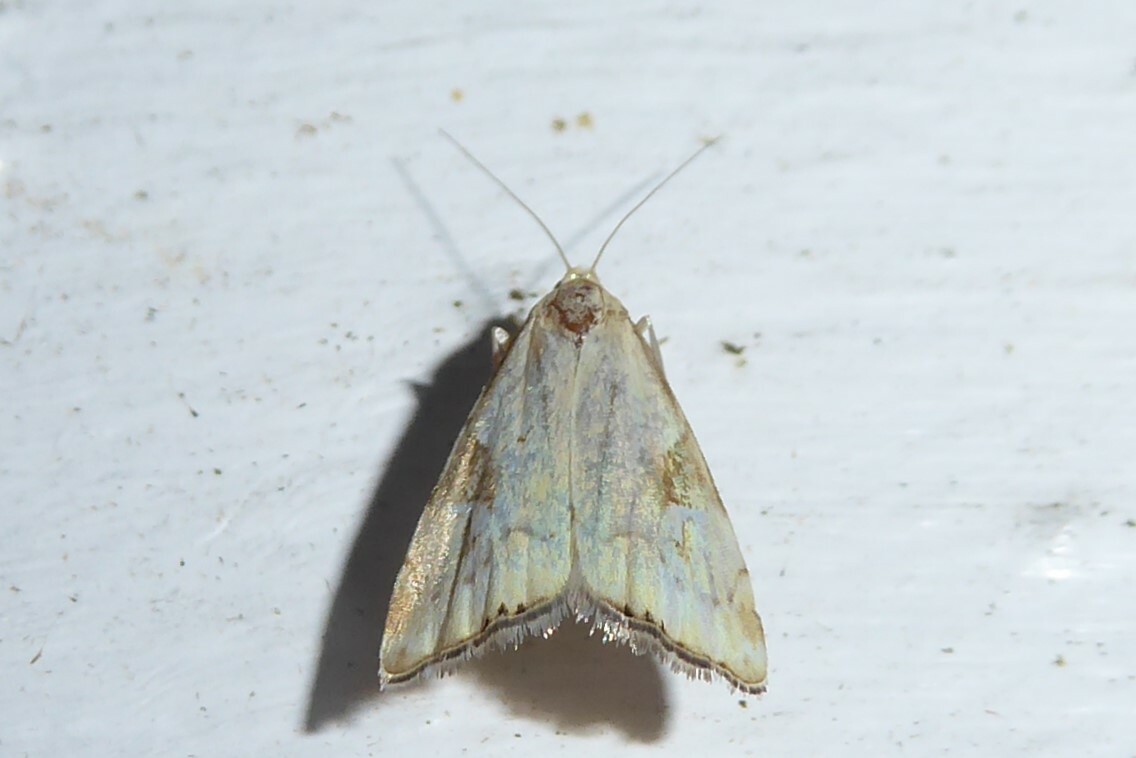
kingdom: Animalia
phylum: Arthropoda
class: Insecta
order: Lepidoptera
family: Crambidae
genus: Glaucocharis
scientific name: Glaucocharis lepidella
